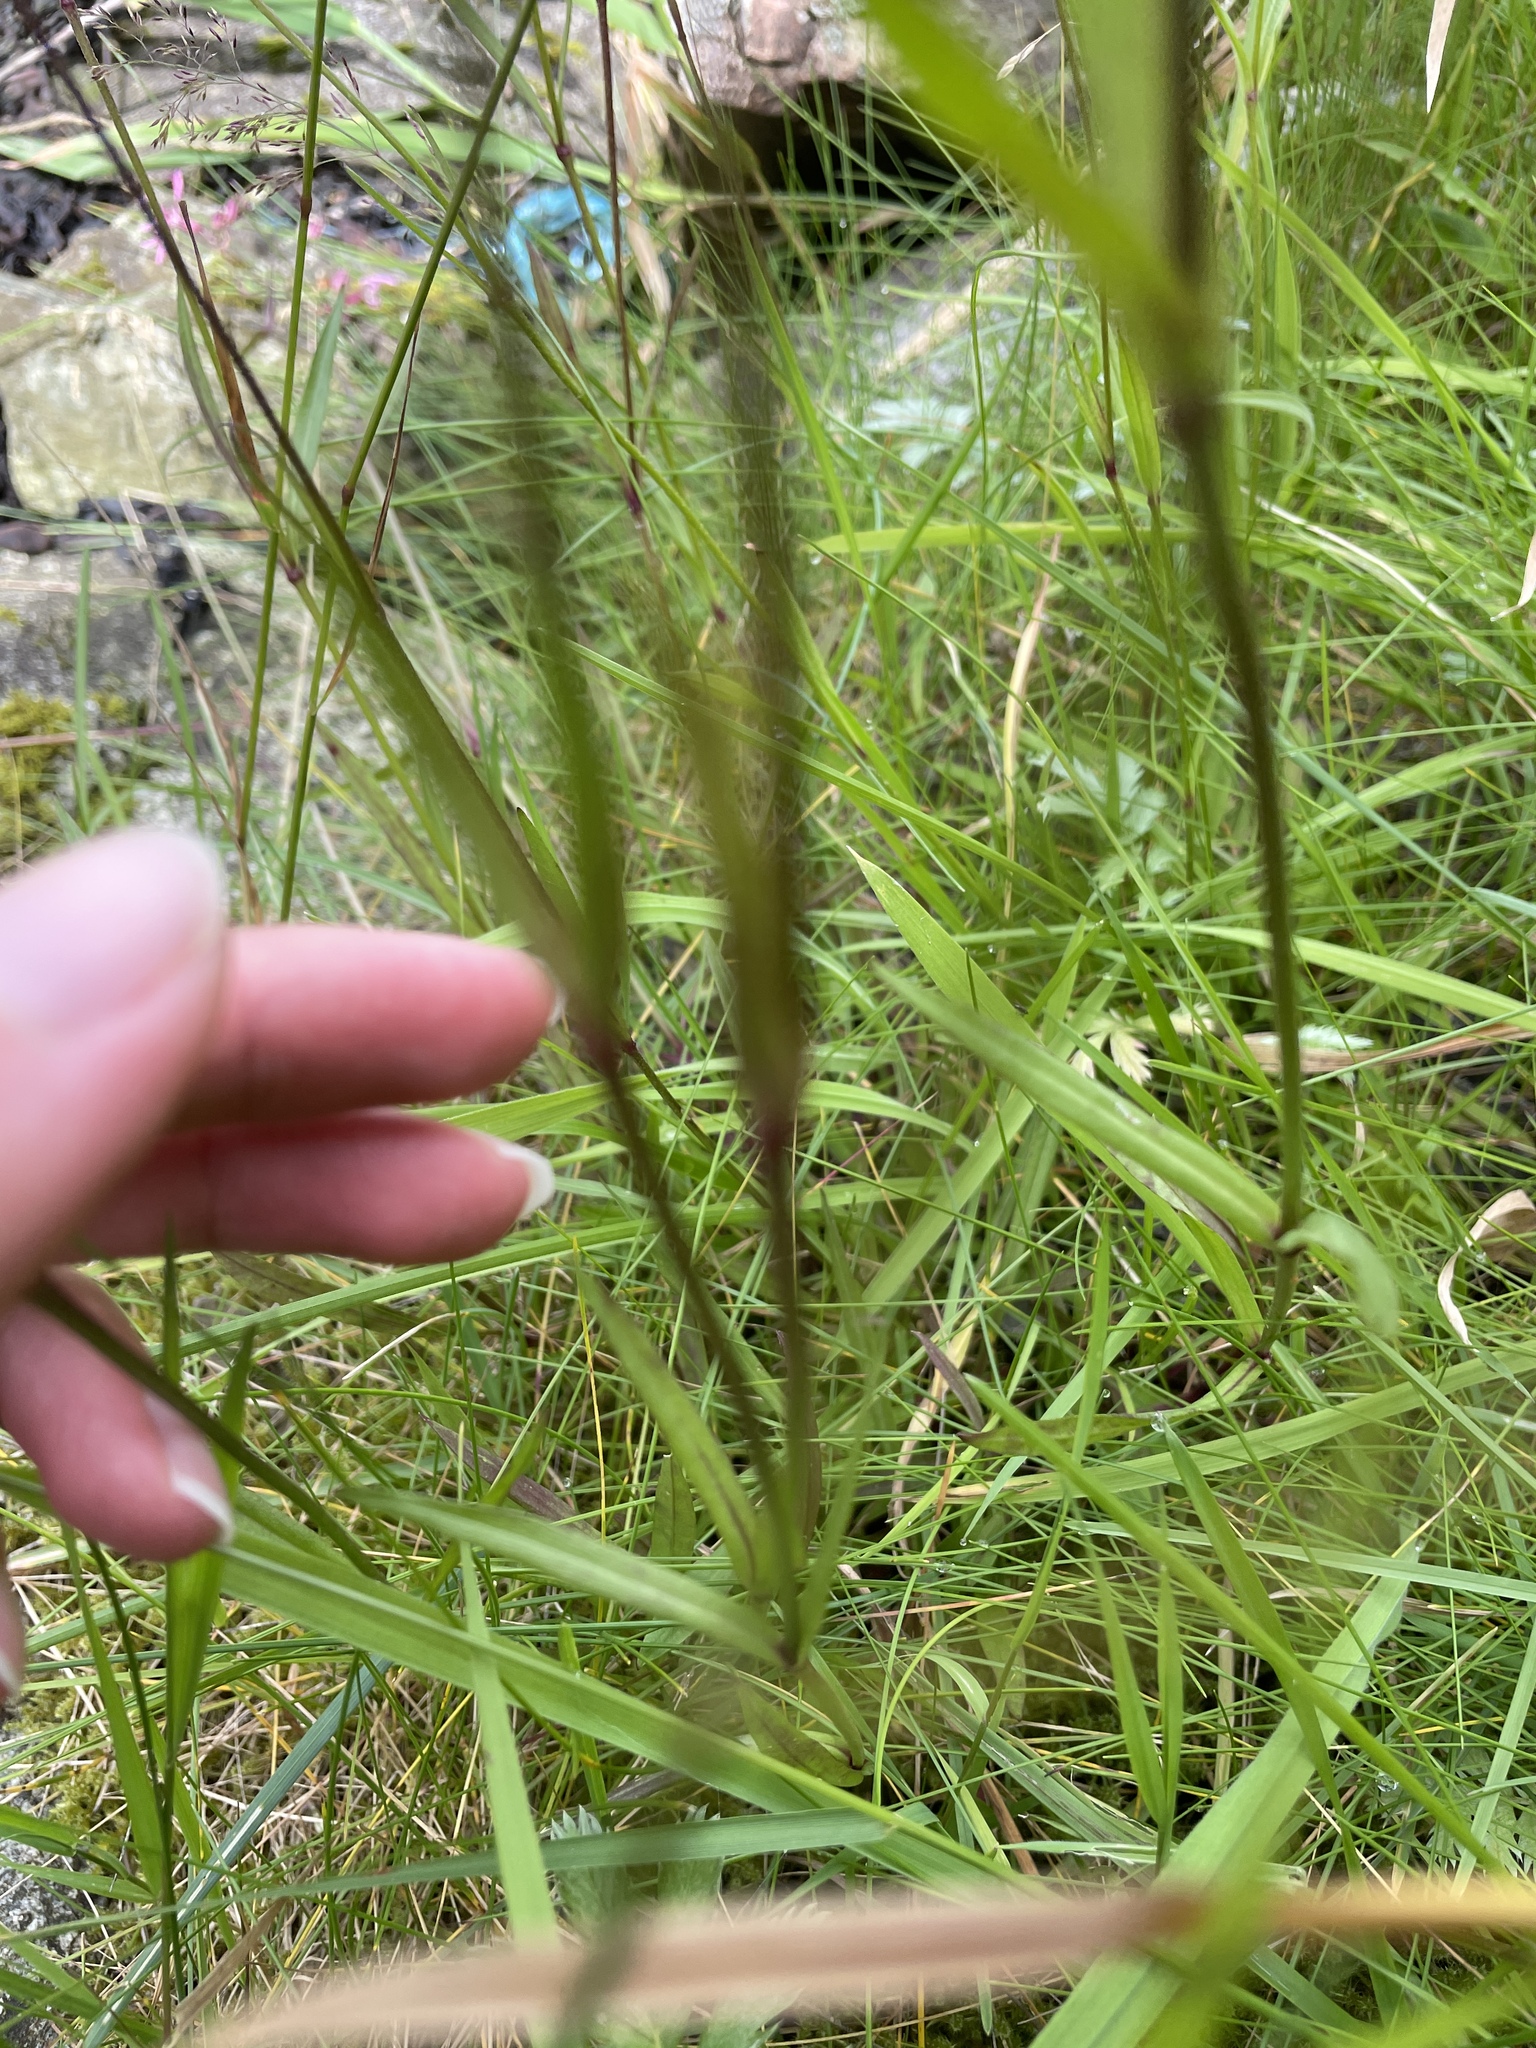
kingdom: Plantae
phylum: Tracheophyta
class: Magnoliopsida
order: Caryophyllales
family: Caryophyllaceae
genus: Silene
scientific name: Silene flos-cuculi
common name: Ragged-robin
